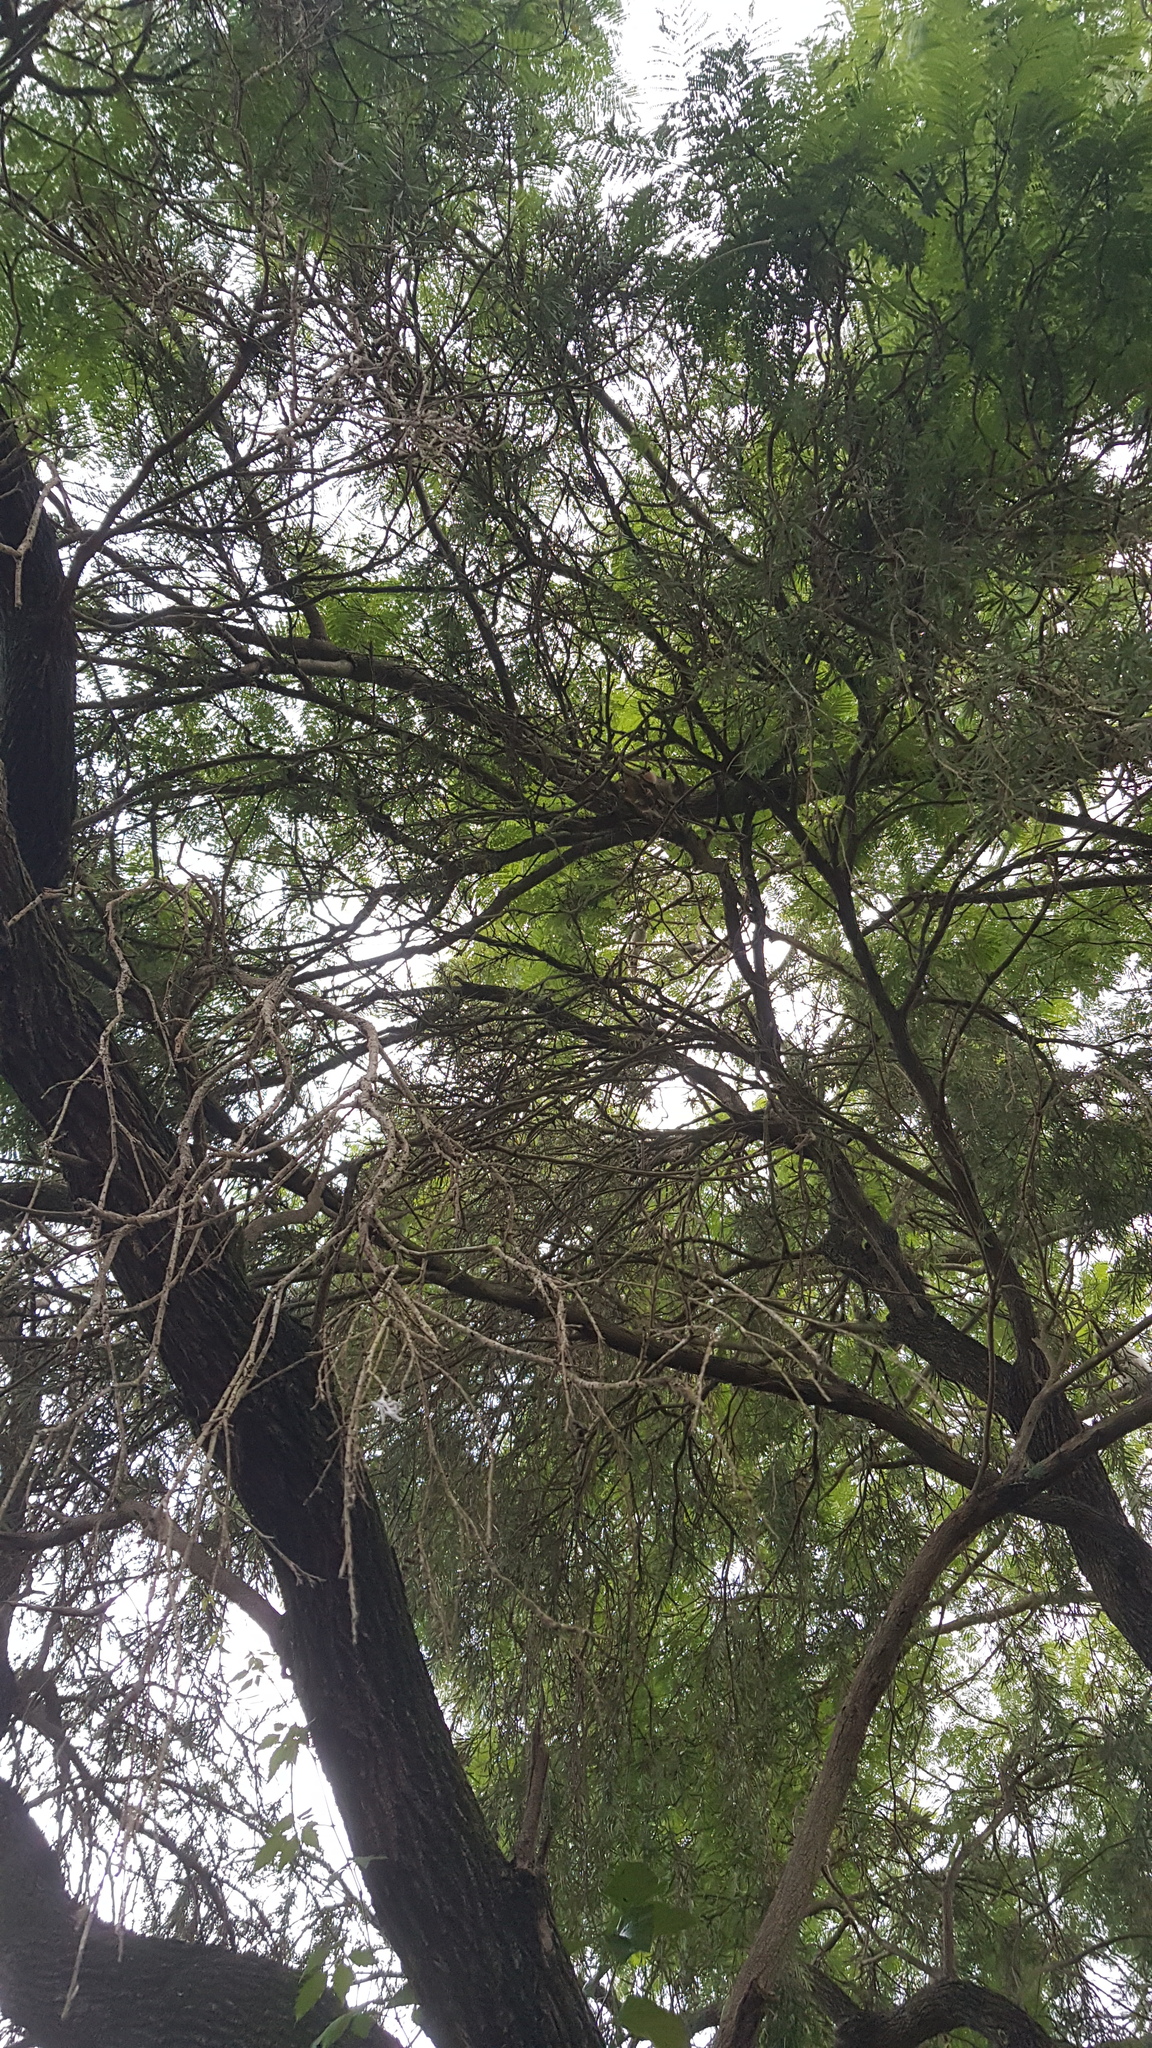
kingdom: Animalia
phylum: Chordata
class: Mammalia
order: Diprotodontia
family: Pseudocheiridae
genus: Pseudocheirus
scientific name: Pseudocheirus peregrinus
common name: Common ringtail possum
